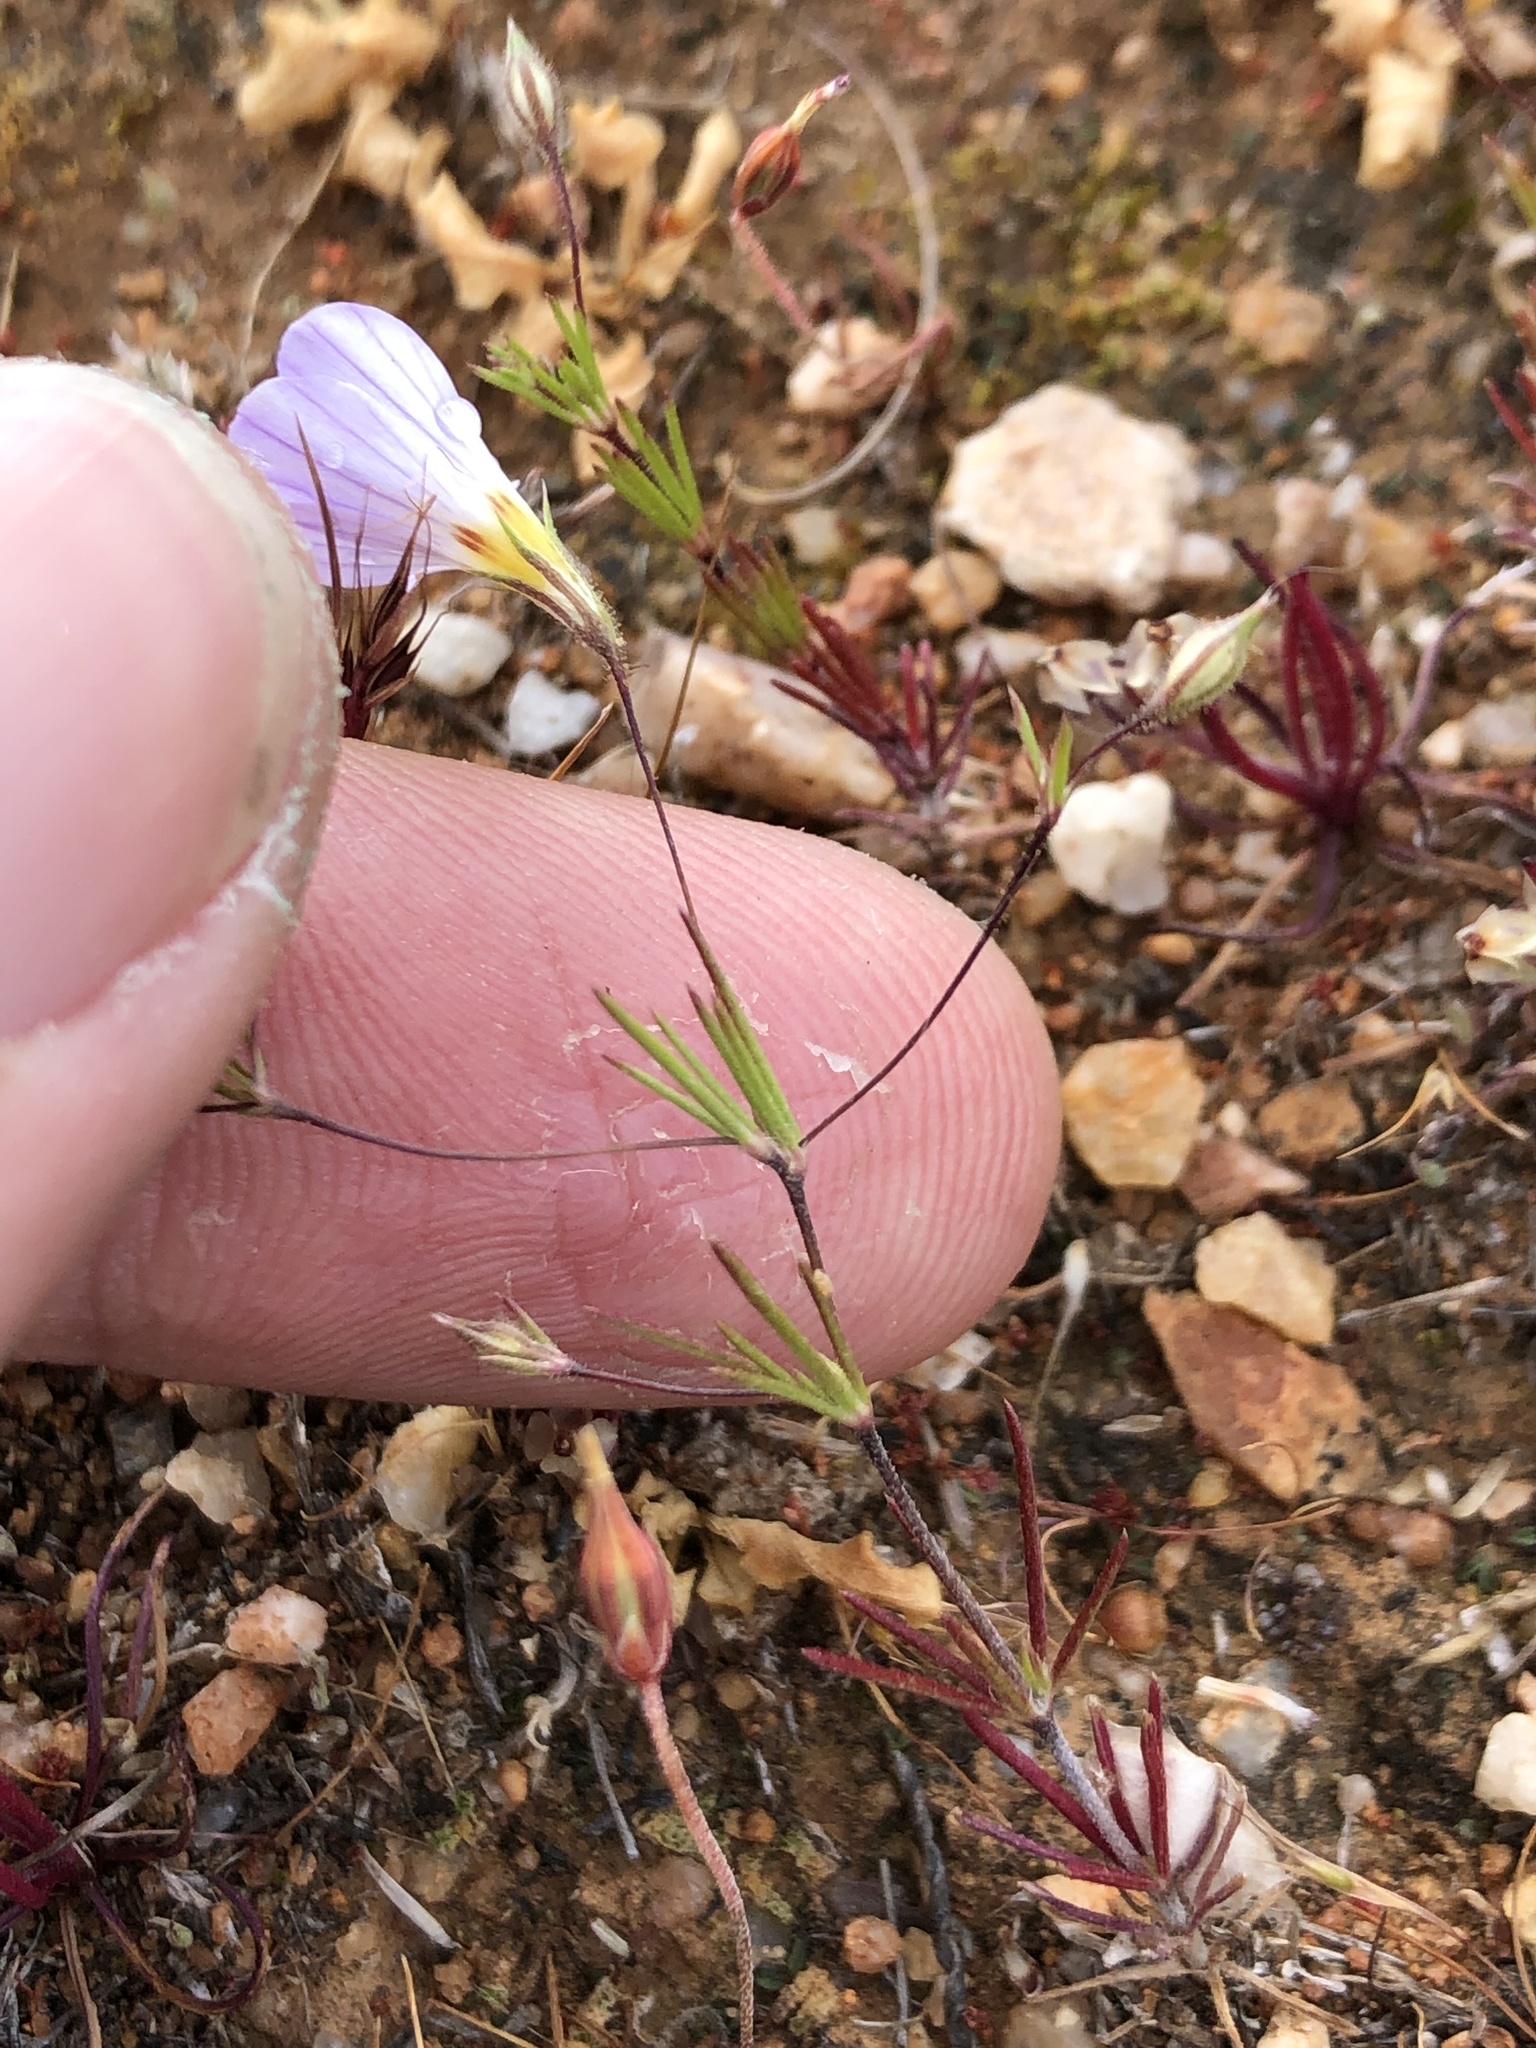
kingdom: Plantae
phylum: Tracheophyta
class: Magnoliopsida
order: Ericales
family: Polemoniaceae
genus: Leptosiphon
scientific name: Leptosiphon liniflorus
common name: Narrowflower flaxflower
